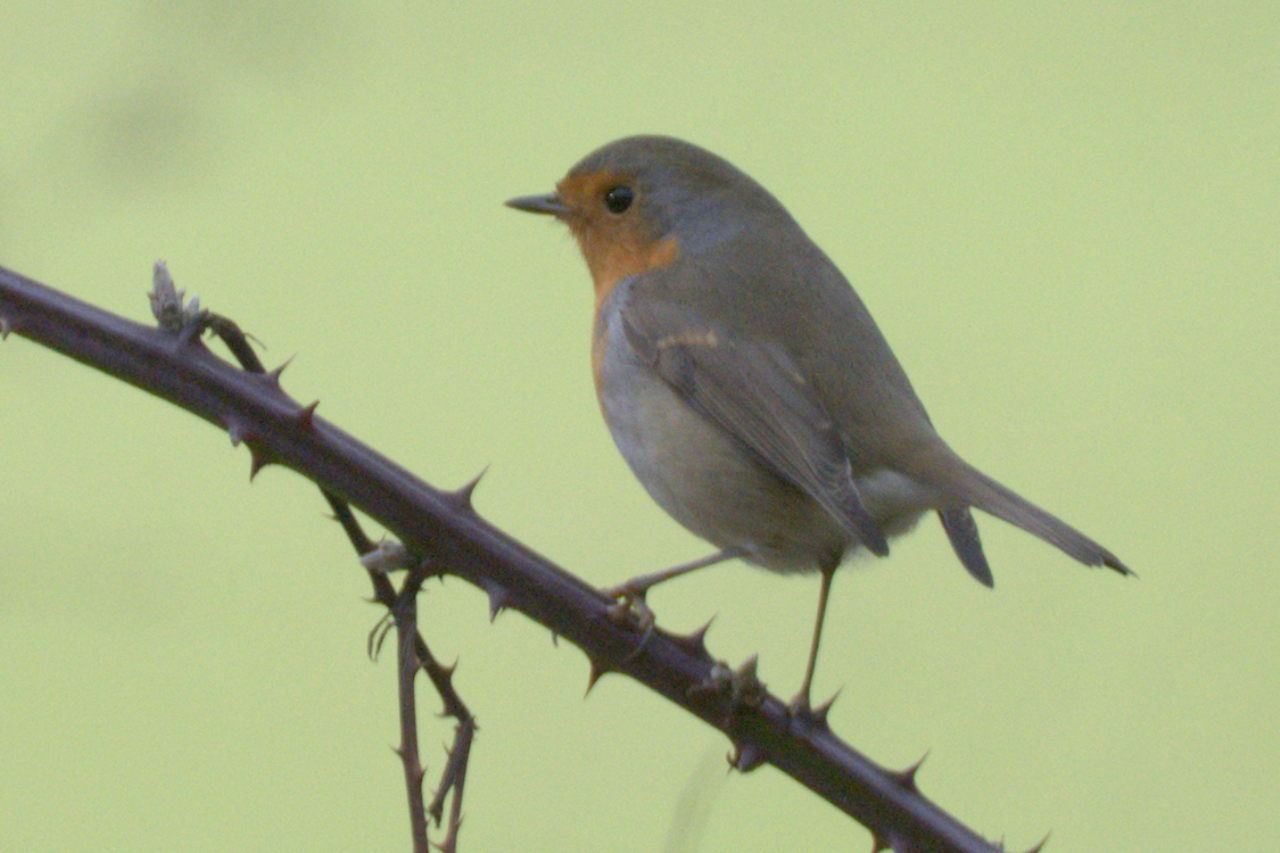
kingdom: Animalia
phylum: Chordata
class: Aves
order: Passeriformes
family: Muscicapidae
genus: Erithacus
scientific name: Erithacus rubecula
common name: European robin
